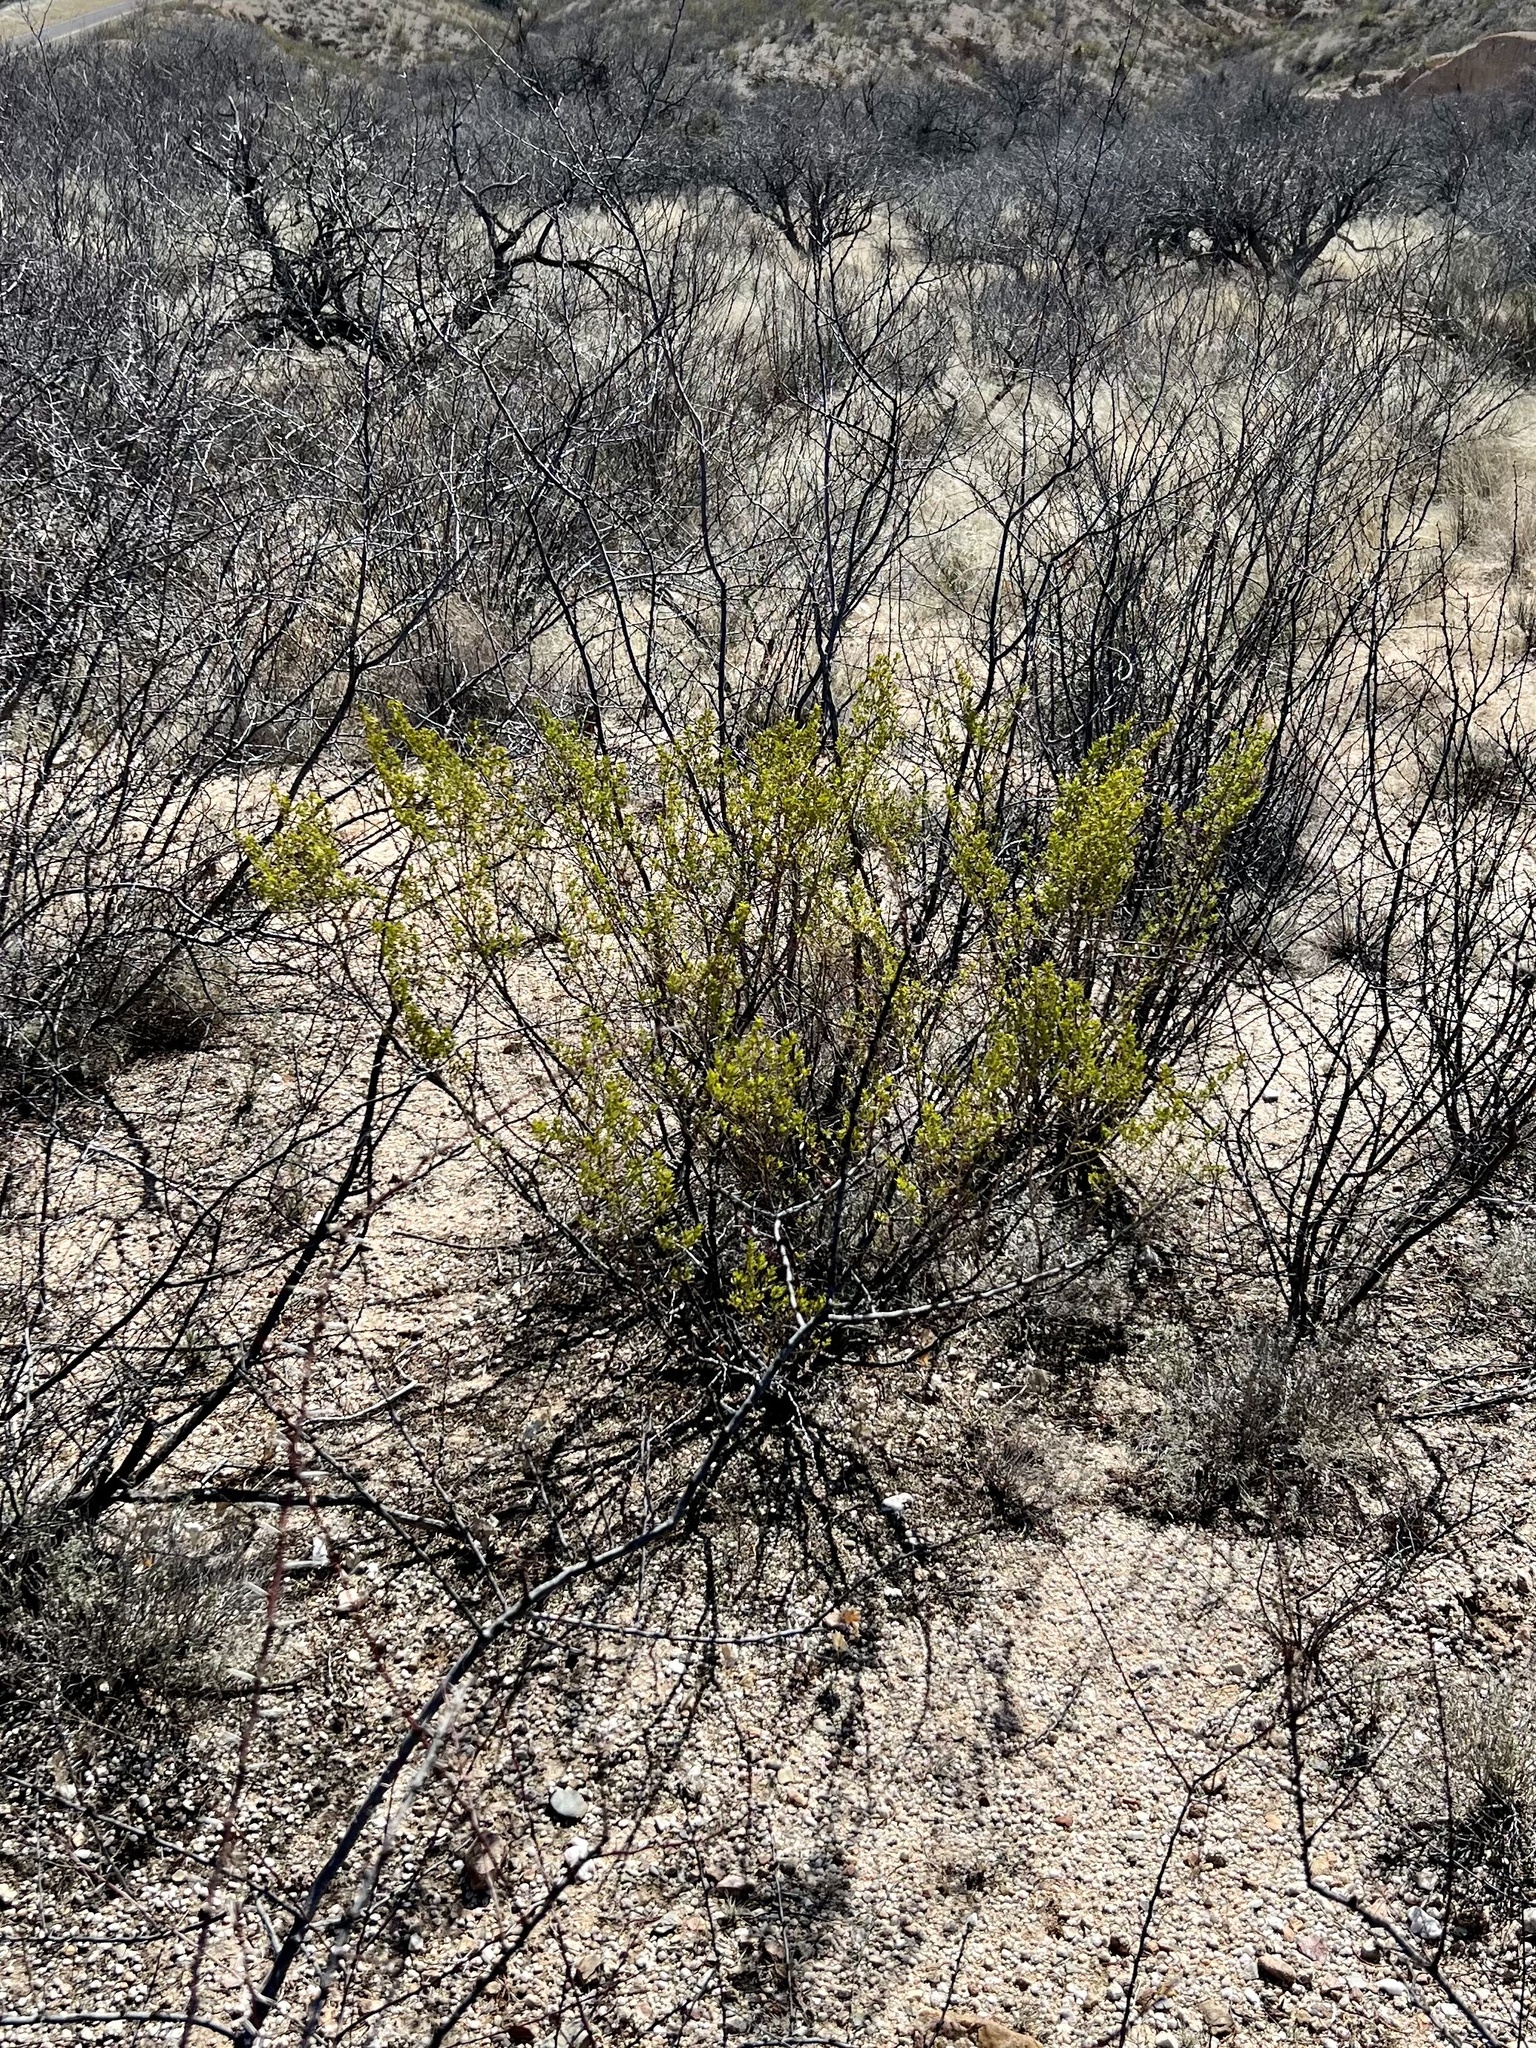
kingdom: Plantae
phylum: Tracheophyta
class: Magnoliopsida
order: Zygophyllales
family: Zygophyllaceae
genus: Larrea
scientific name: Larrea tridentata
